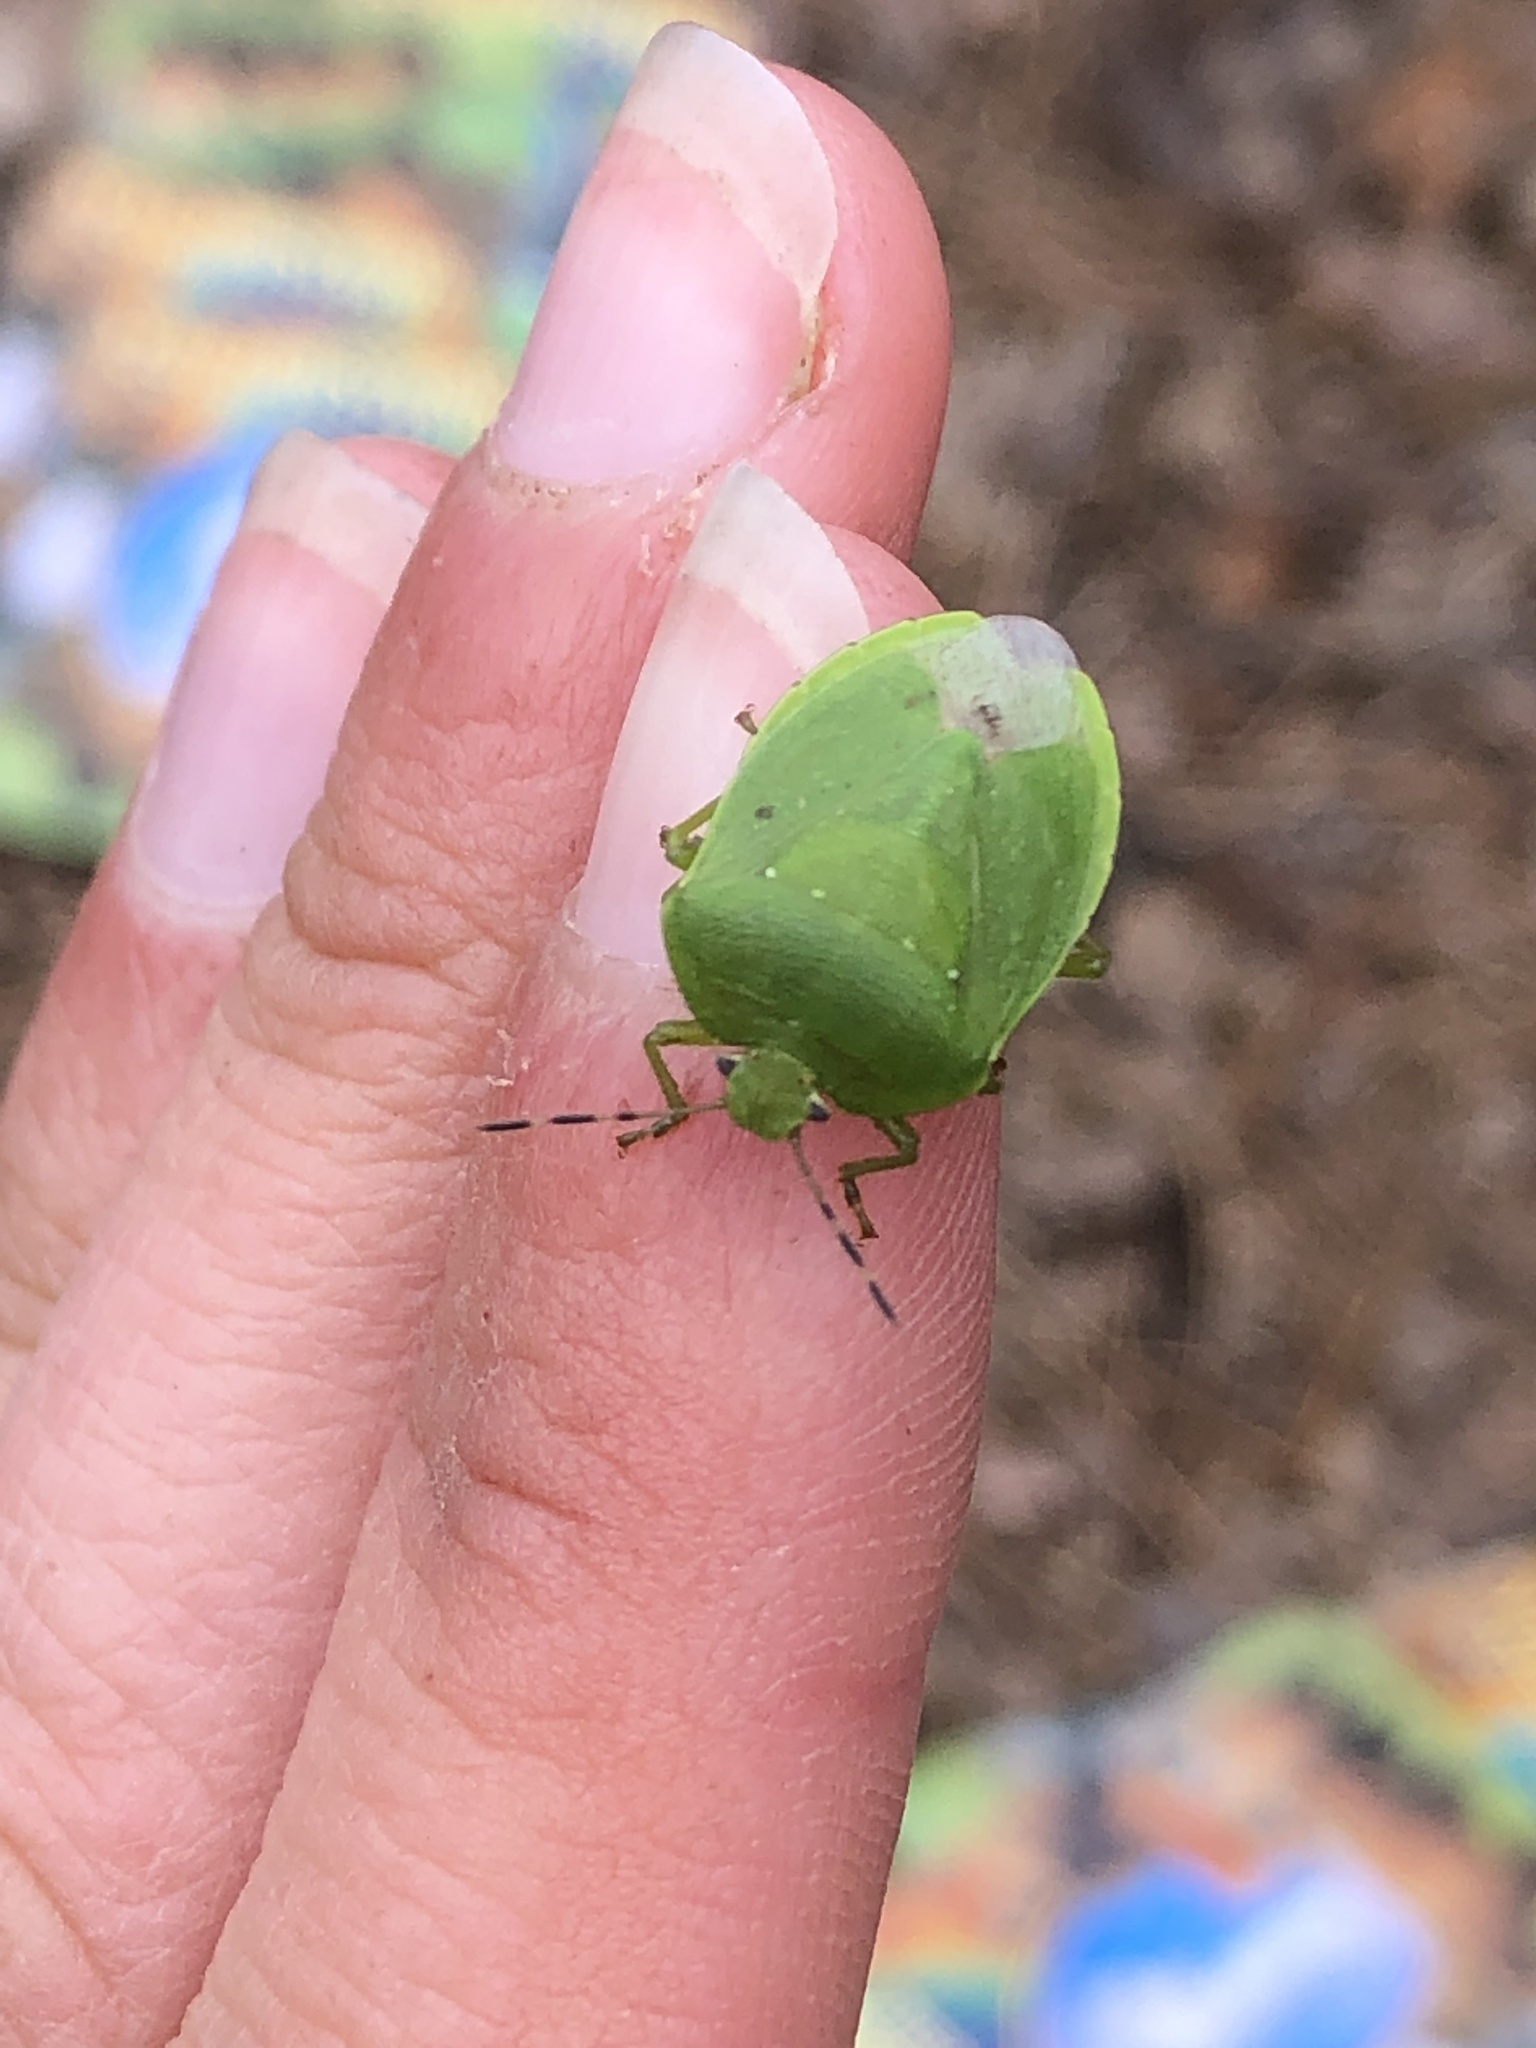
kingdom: Animalia
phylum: Arthropoda
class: Insecta
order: Hemiptera
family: Pentatomidae
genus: Chinavia
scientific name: Chinavia
